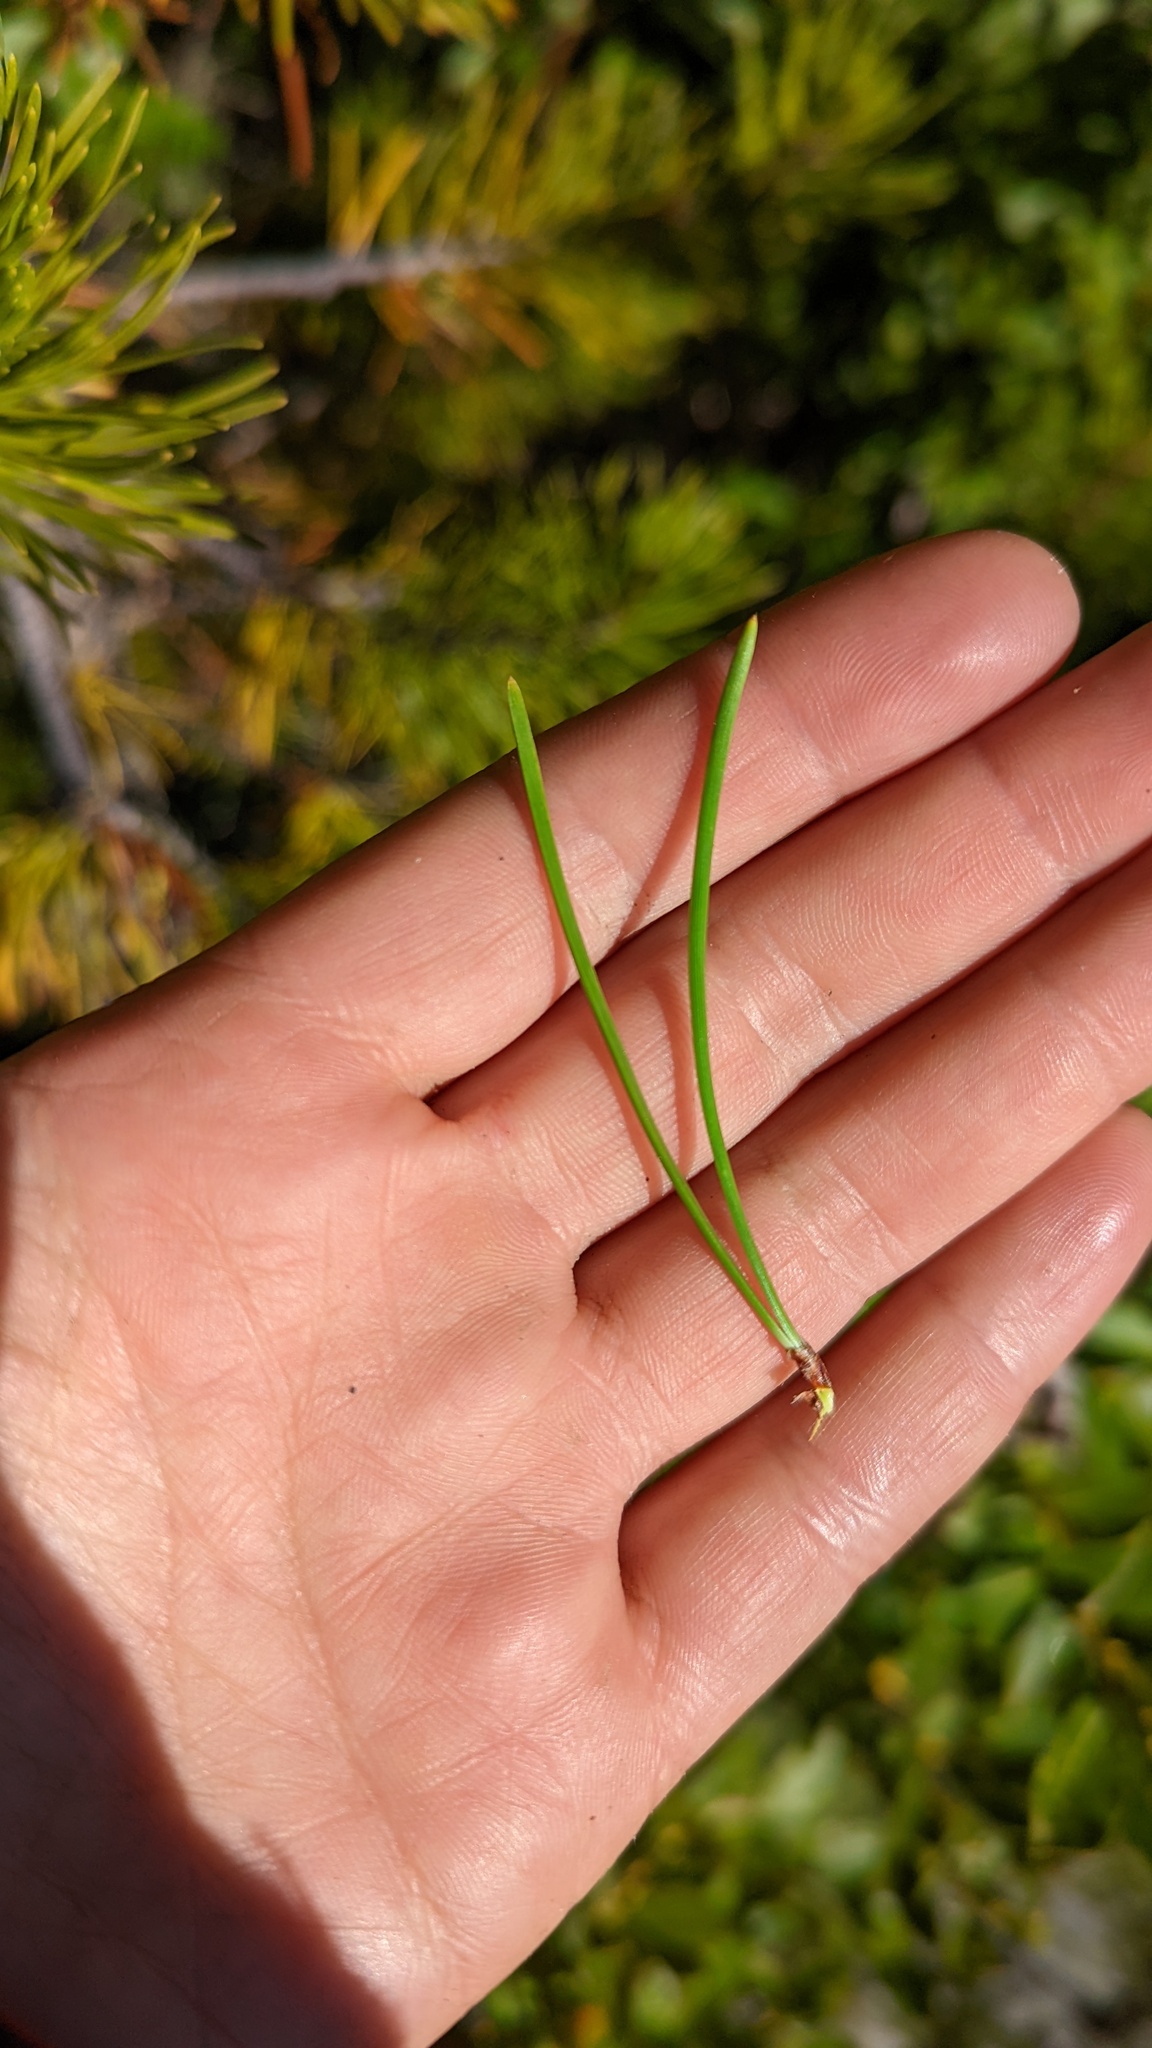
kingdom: Plantae
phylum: Tracheophyta
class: Pinopsida
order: Pinales
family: Pinaceae
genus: Pinus
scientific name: Pinus contorta
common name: Lodgepole pine
